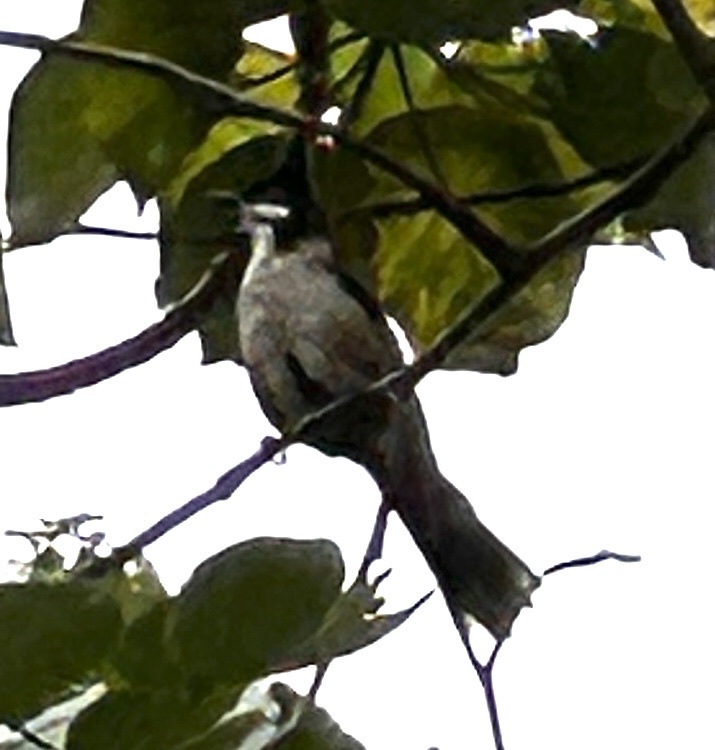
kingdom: Animalia
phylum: Chordata
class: Aves
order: Passeriformes
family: Pycnonotidae
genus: Pycnonotus
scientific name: Pycnonotus jocosus
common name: Red-whiskered bulbul
